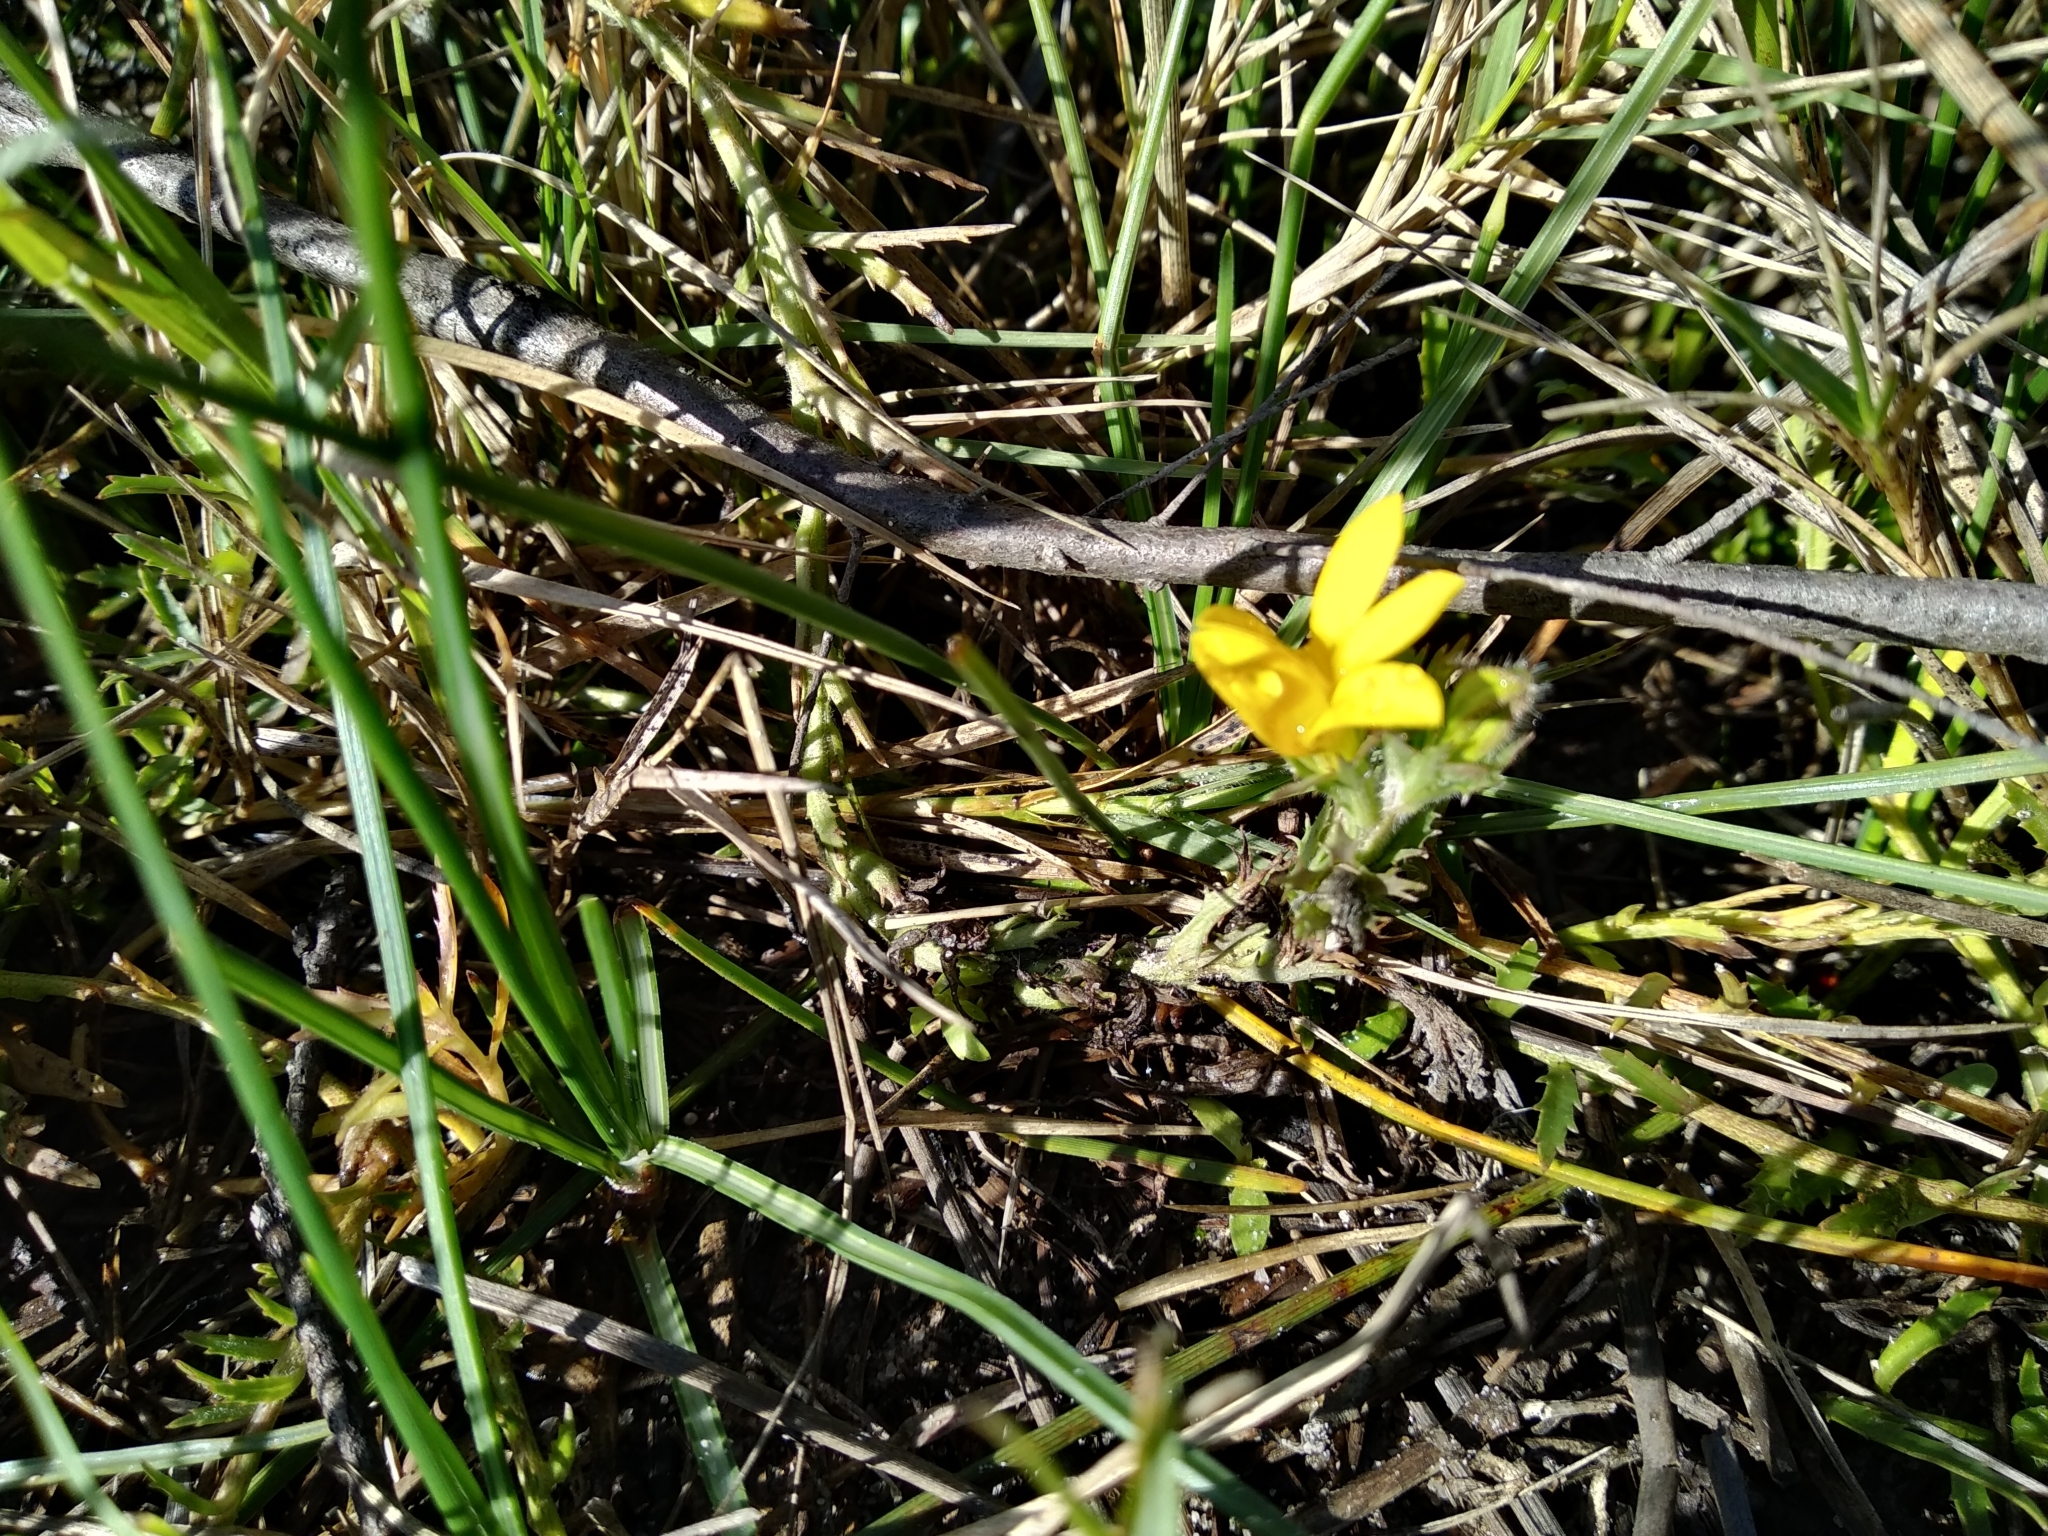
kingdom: Plantae
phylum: Tracheophyta
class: Magnoliopsida
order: Asterales
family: Campanulaceae
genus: Monopsis
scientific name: Monopsis lutea
